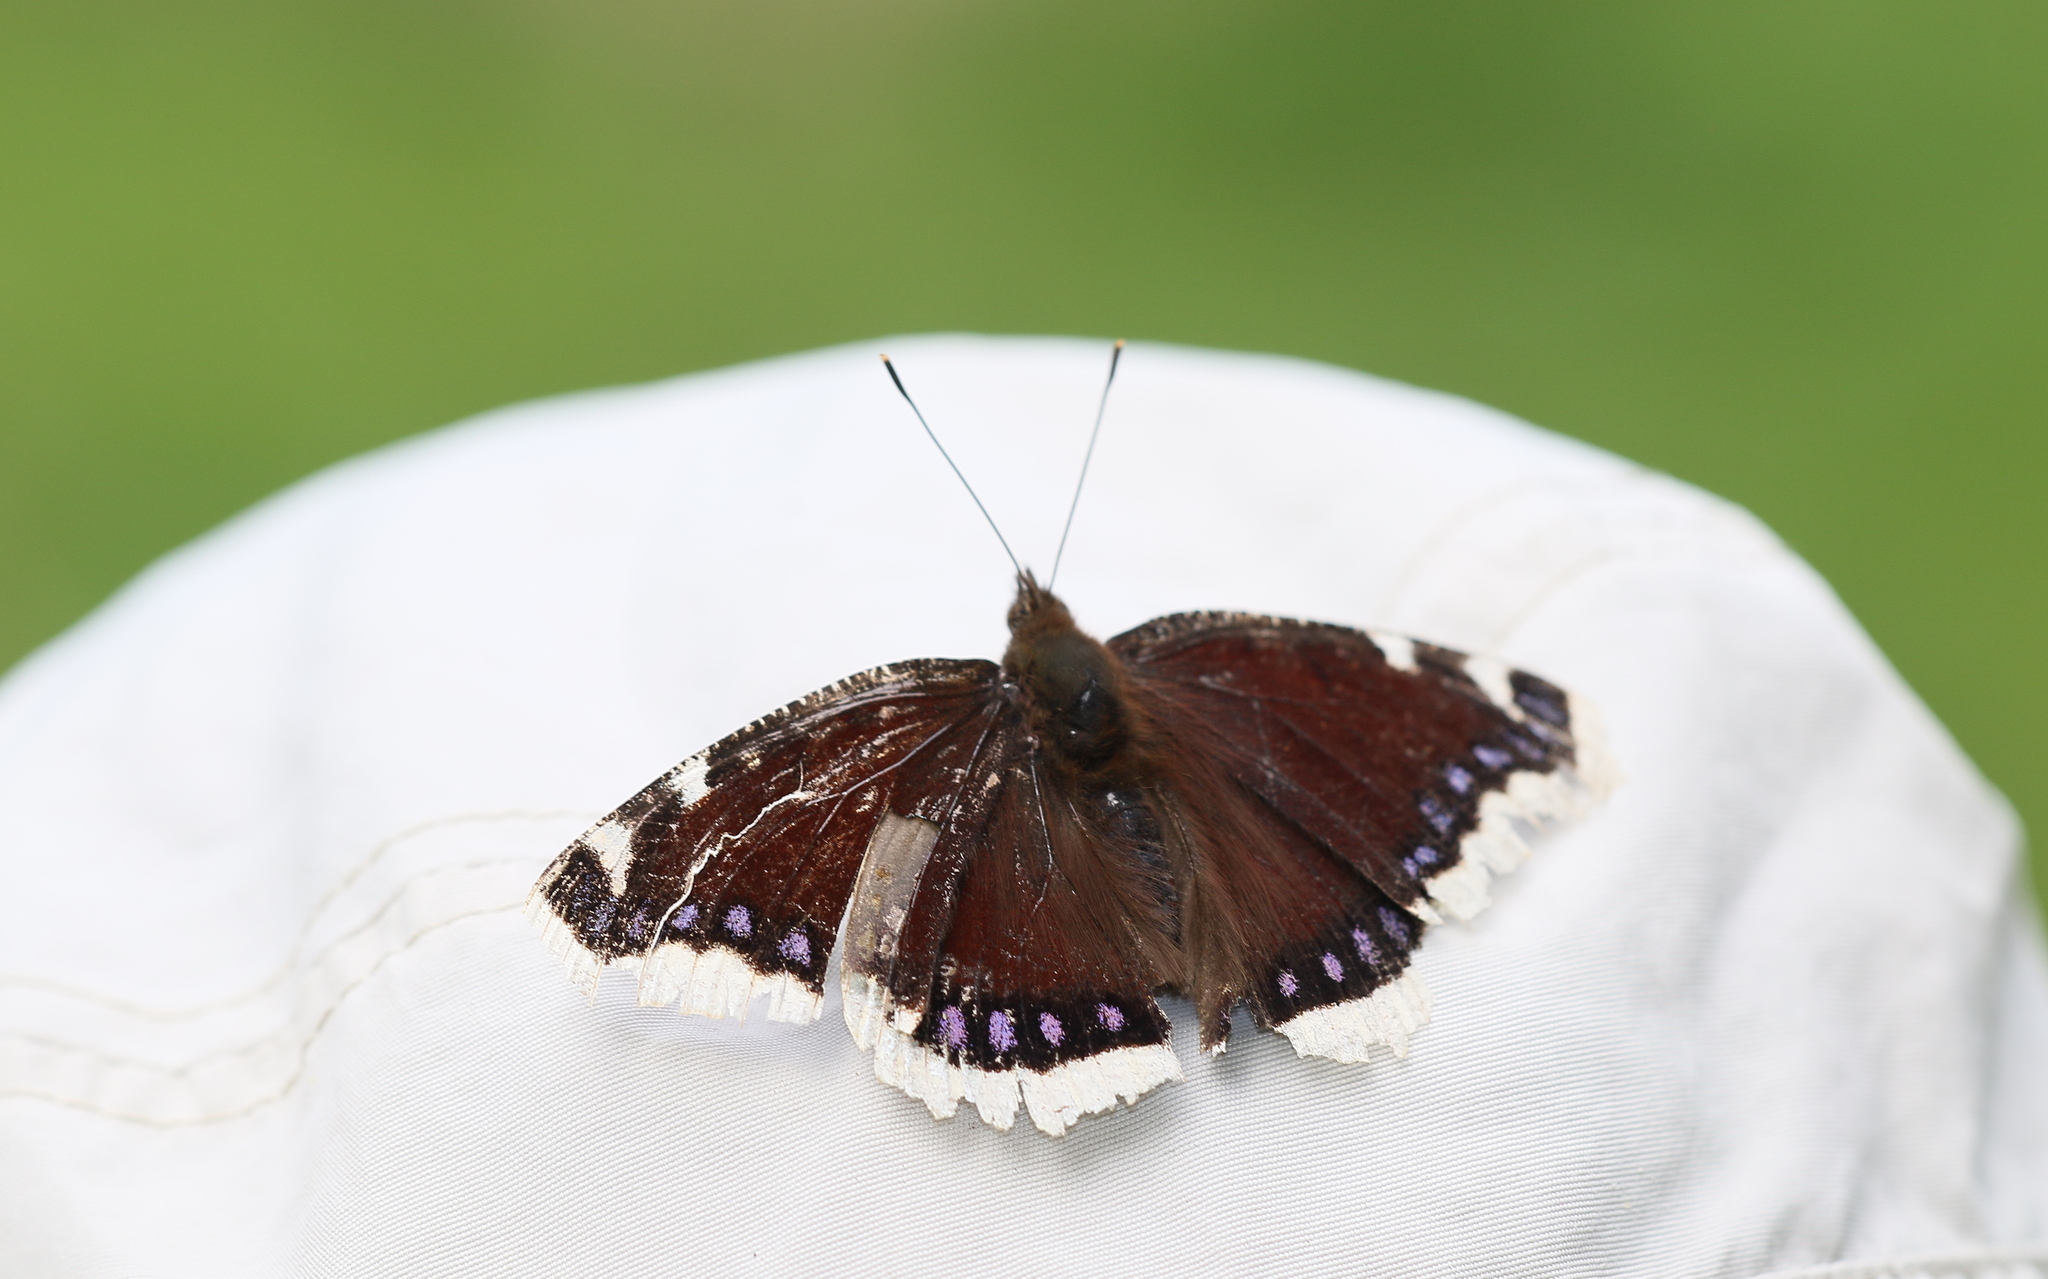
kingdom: Animalia
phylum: Arthropoda
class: Insecta
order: Lepidoptera
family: Nymphalidae
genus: Nymphalis
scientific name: Nymphalis antiopa
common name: Camberwell beauty
